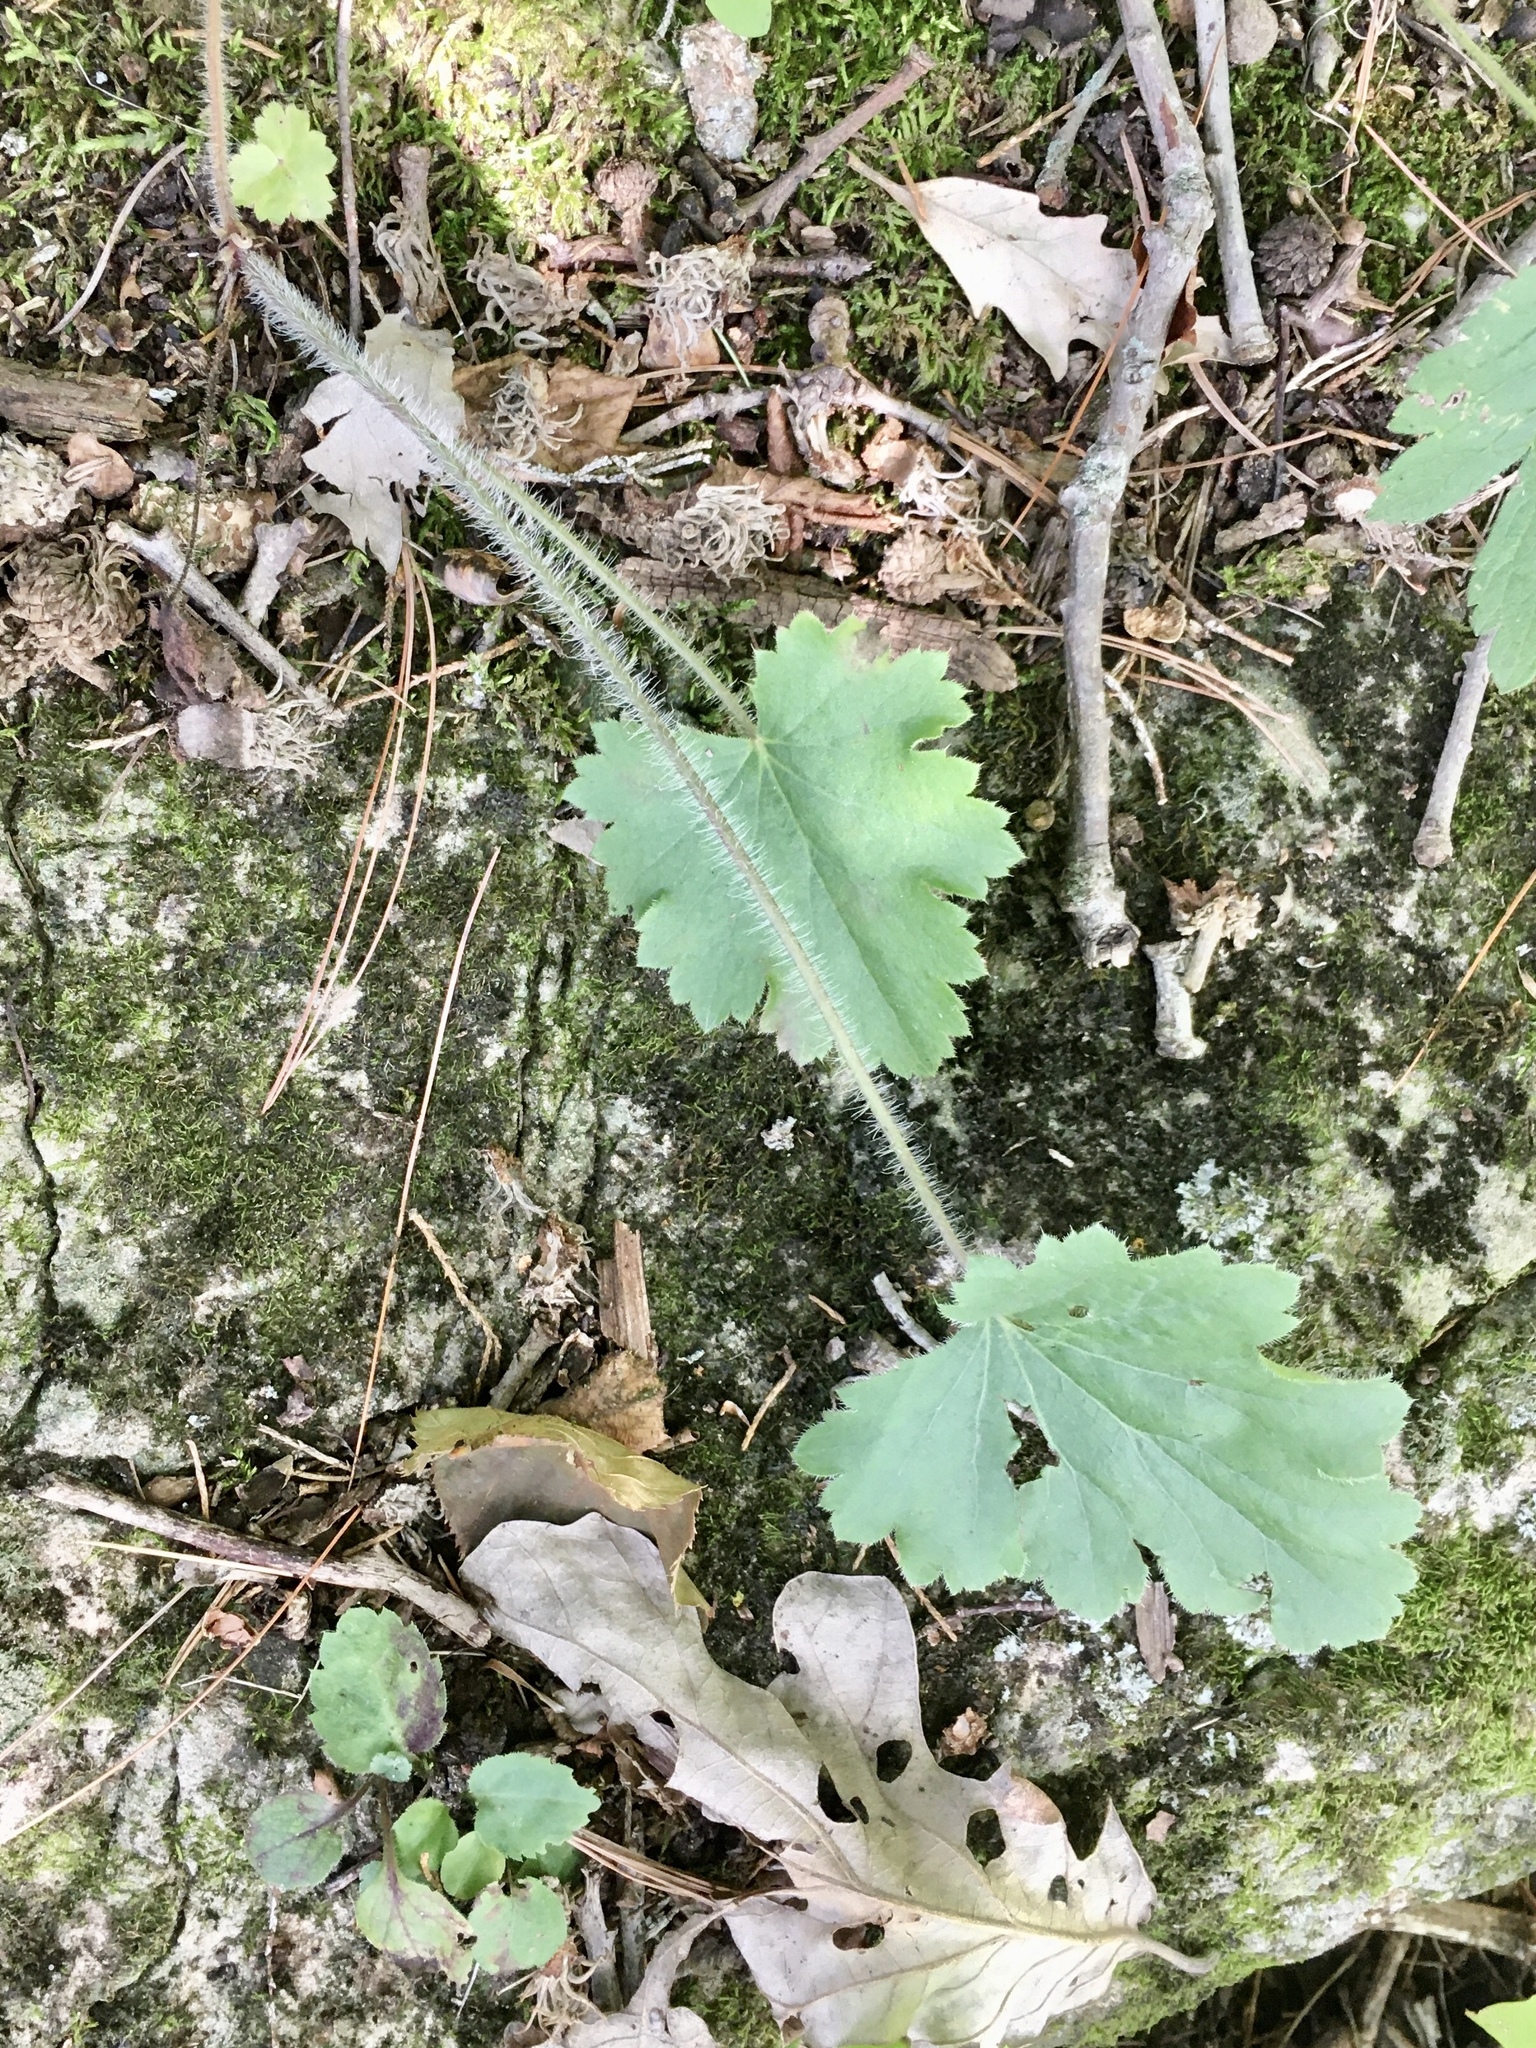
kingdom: Plantae
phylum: Tracheophyta
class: Magnoliopsida
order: Saxifragales
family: Saxifragaceae
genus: Heuchera
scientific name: Heuchera richardsonii
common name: Richardson's alumroot
